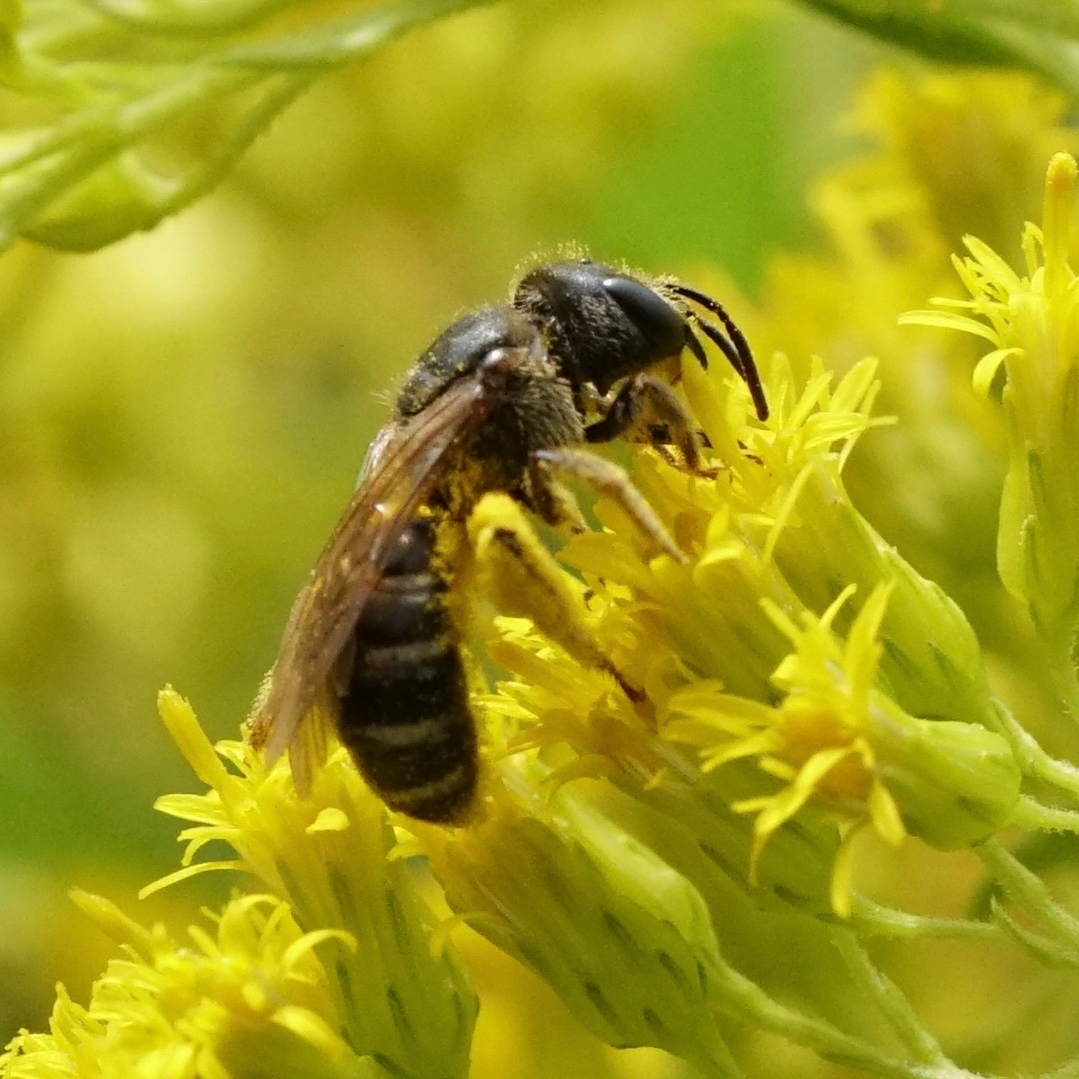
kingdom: Animalia
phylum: Arthropoda
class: Insecta
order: Hymenoptera
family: Halictidae
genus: Halictus
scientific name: Halictus ligatus
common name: Ligated furrow bee
